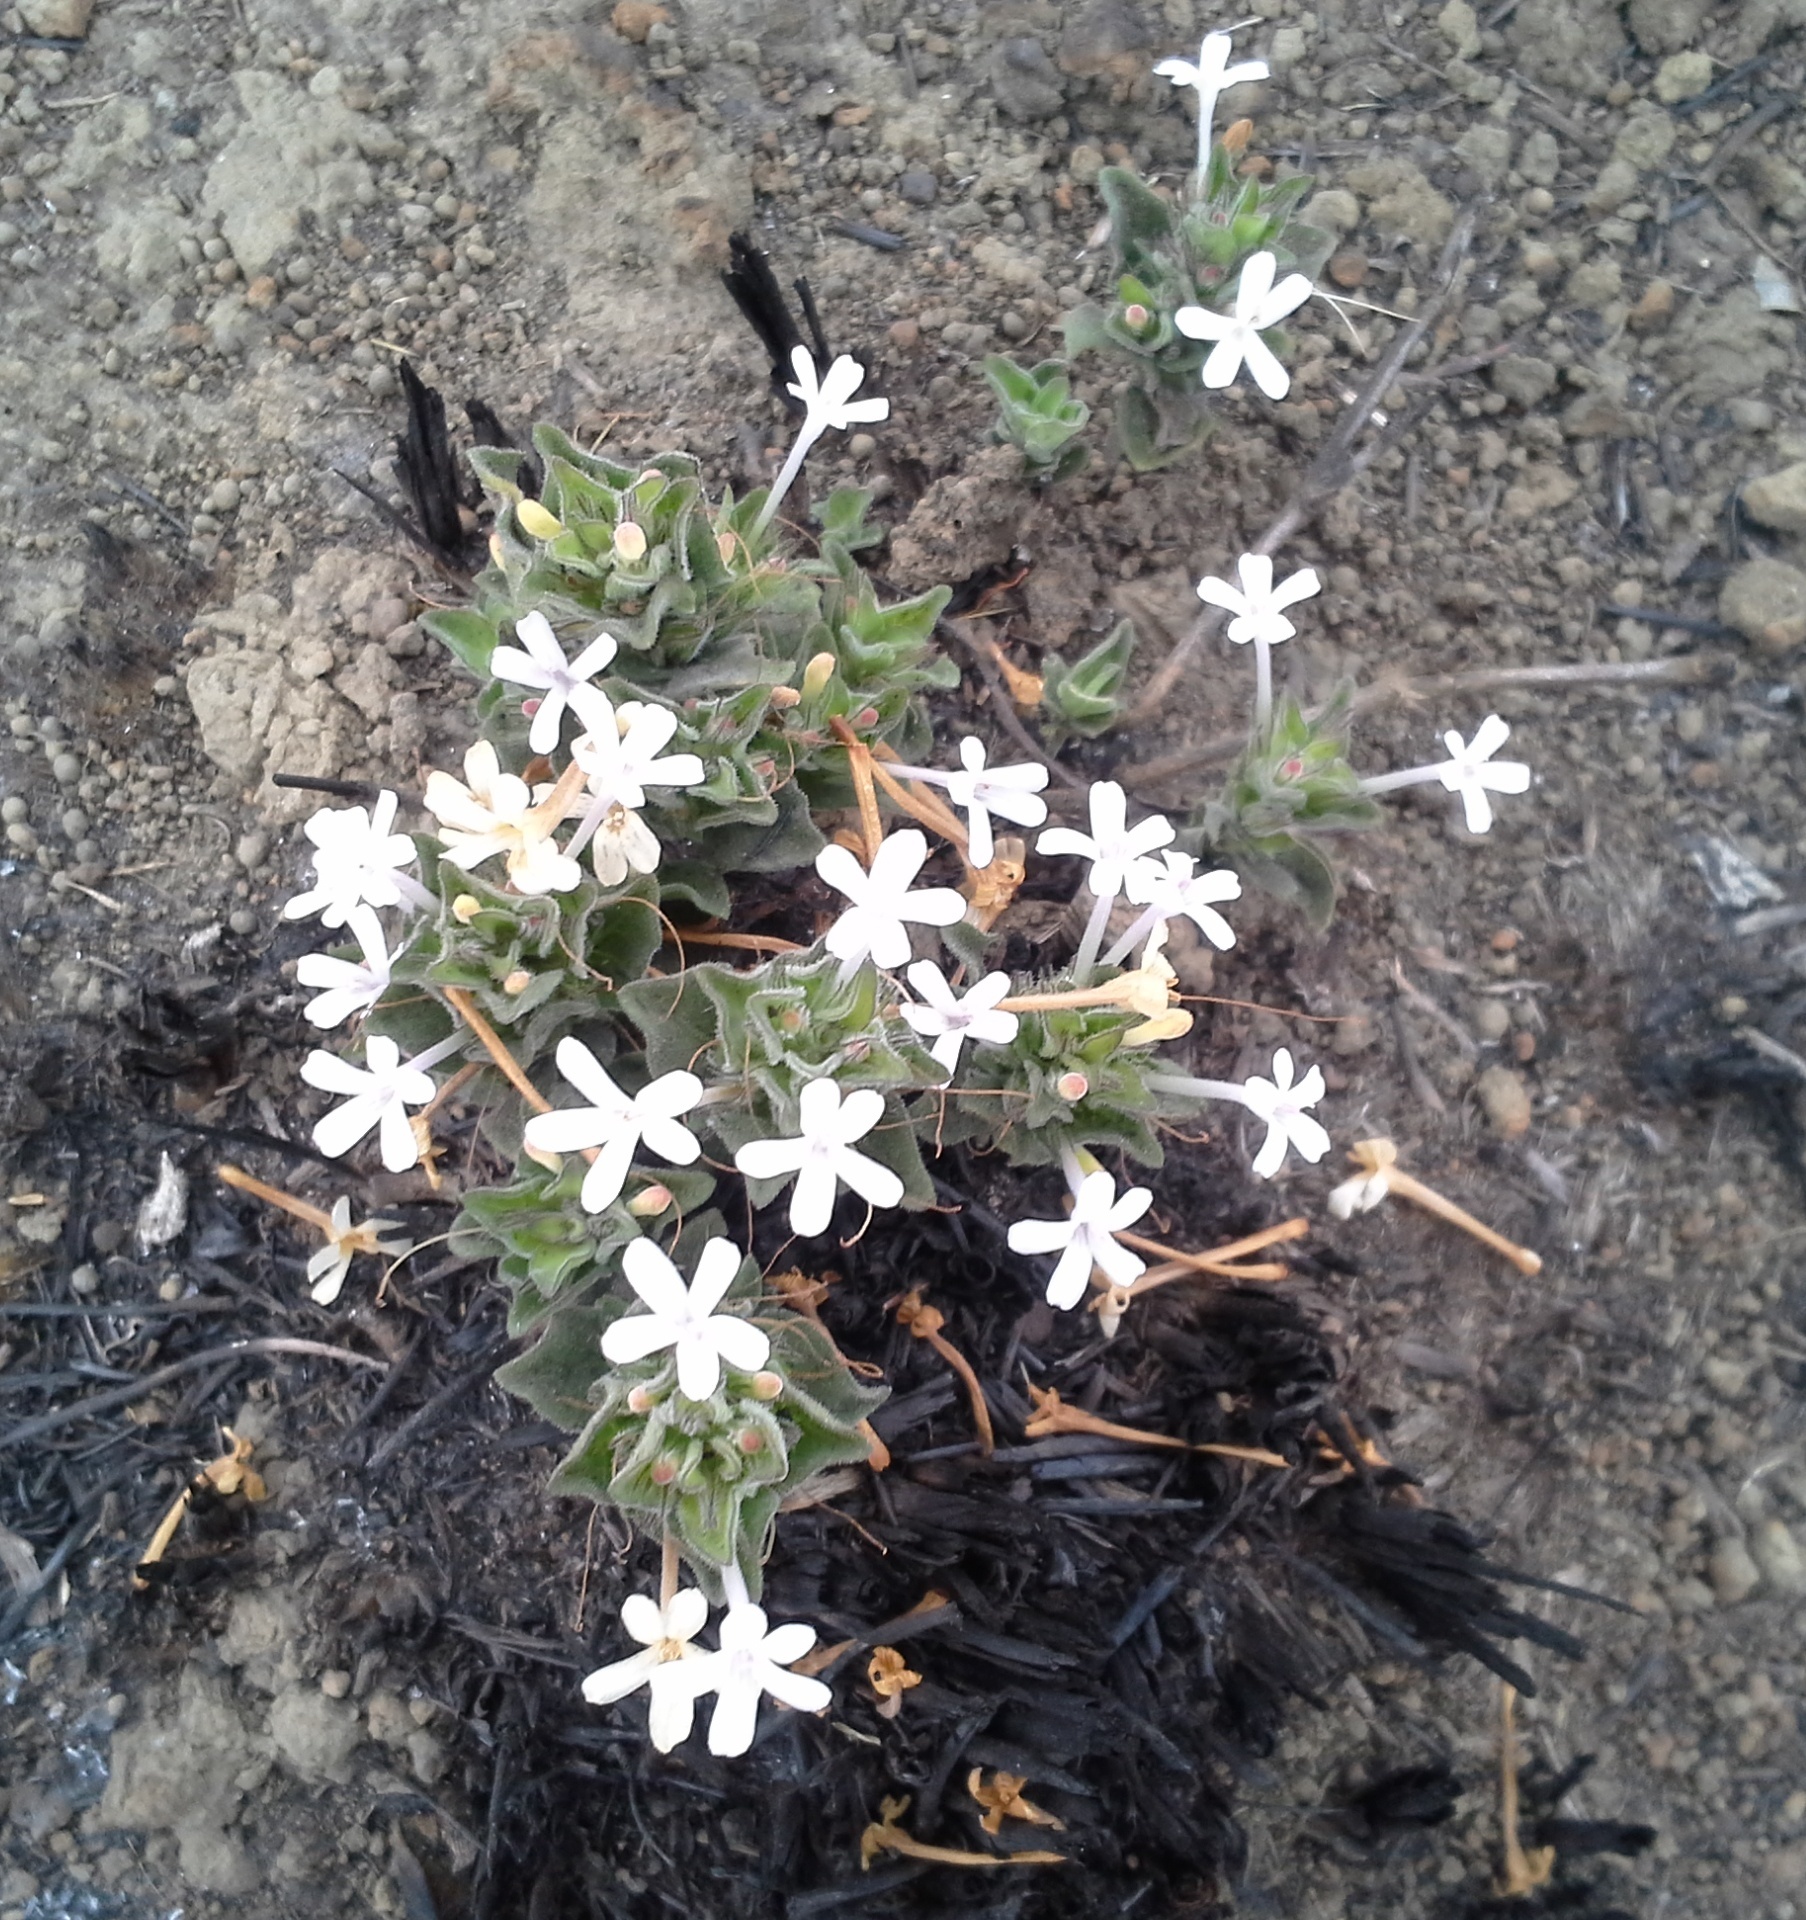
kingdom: Plantae
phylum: Tracheophyta
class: Magnoliopsida
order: Lamiales
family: Acanthaceae
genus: Dyschoriste
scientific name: Dyschoriste setigera
